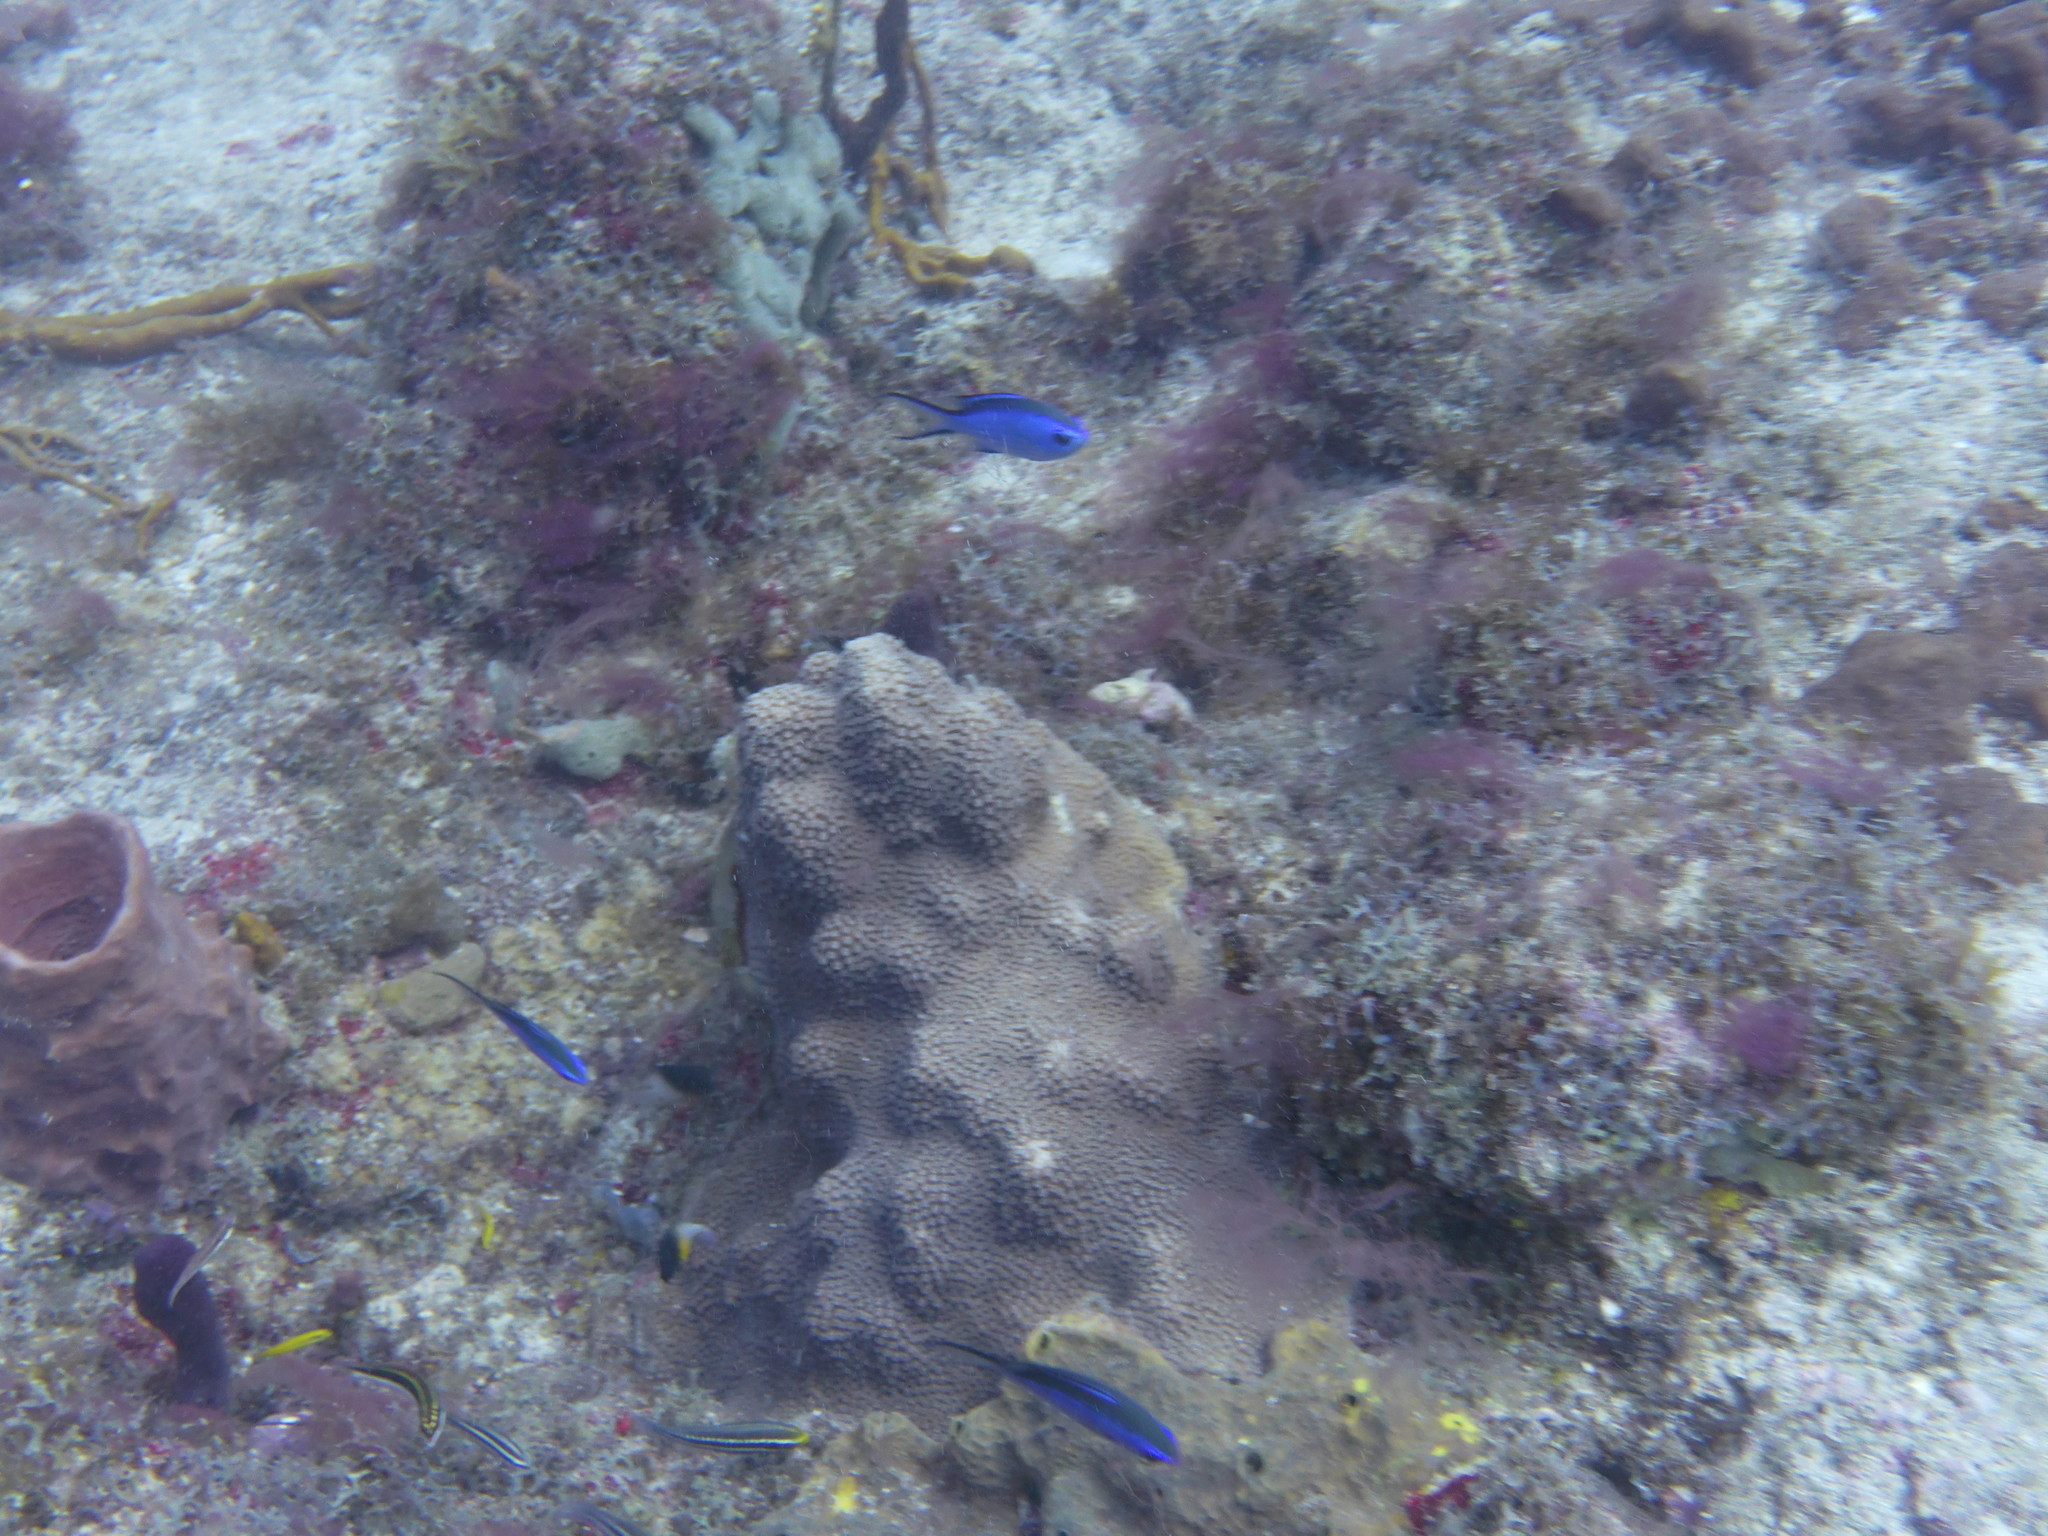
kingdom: Animalia
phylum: Chordata
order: Perciformes
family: Pomacentridae
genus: Chromis
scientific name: Chromis cyanea
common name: Blue chromis
